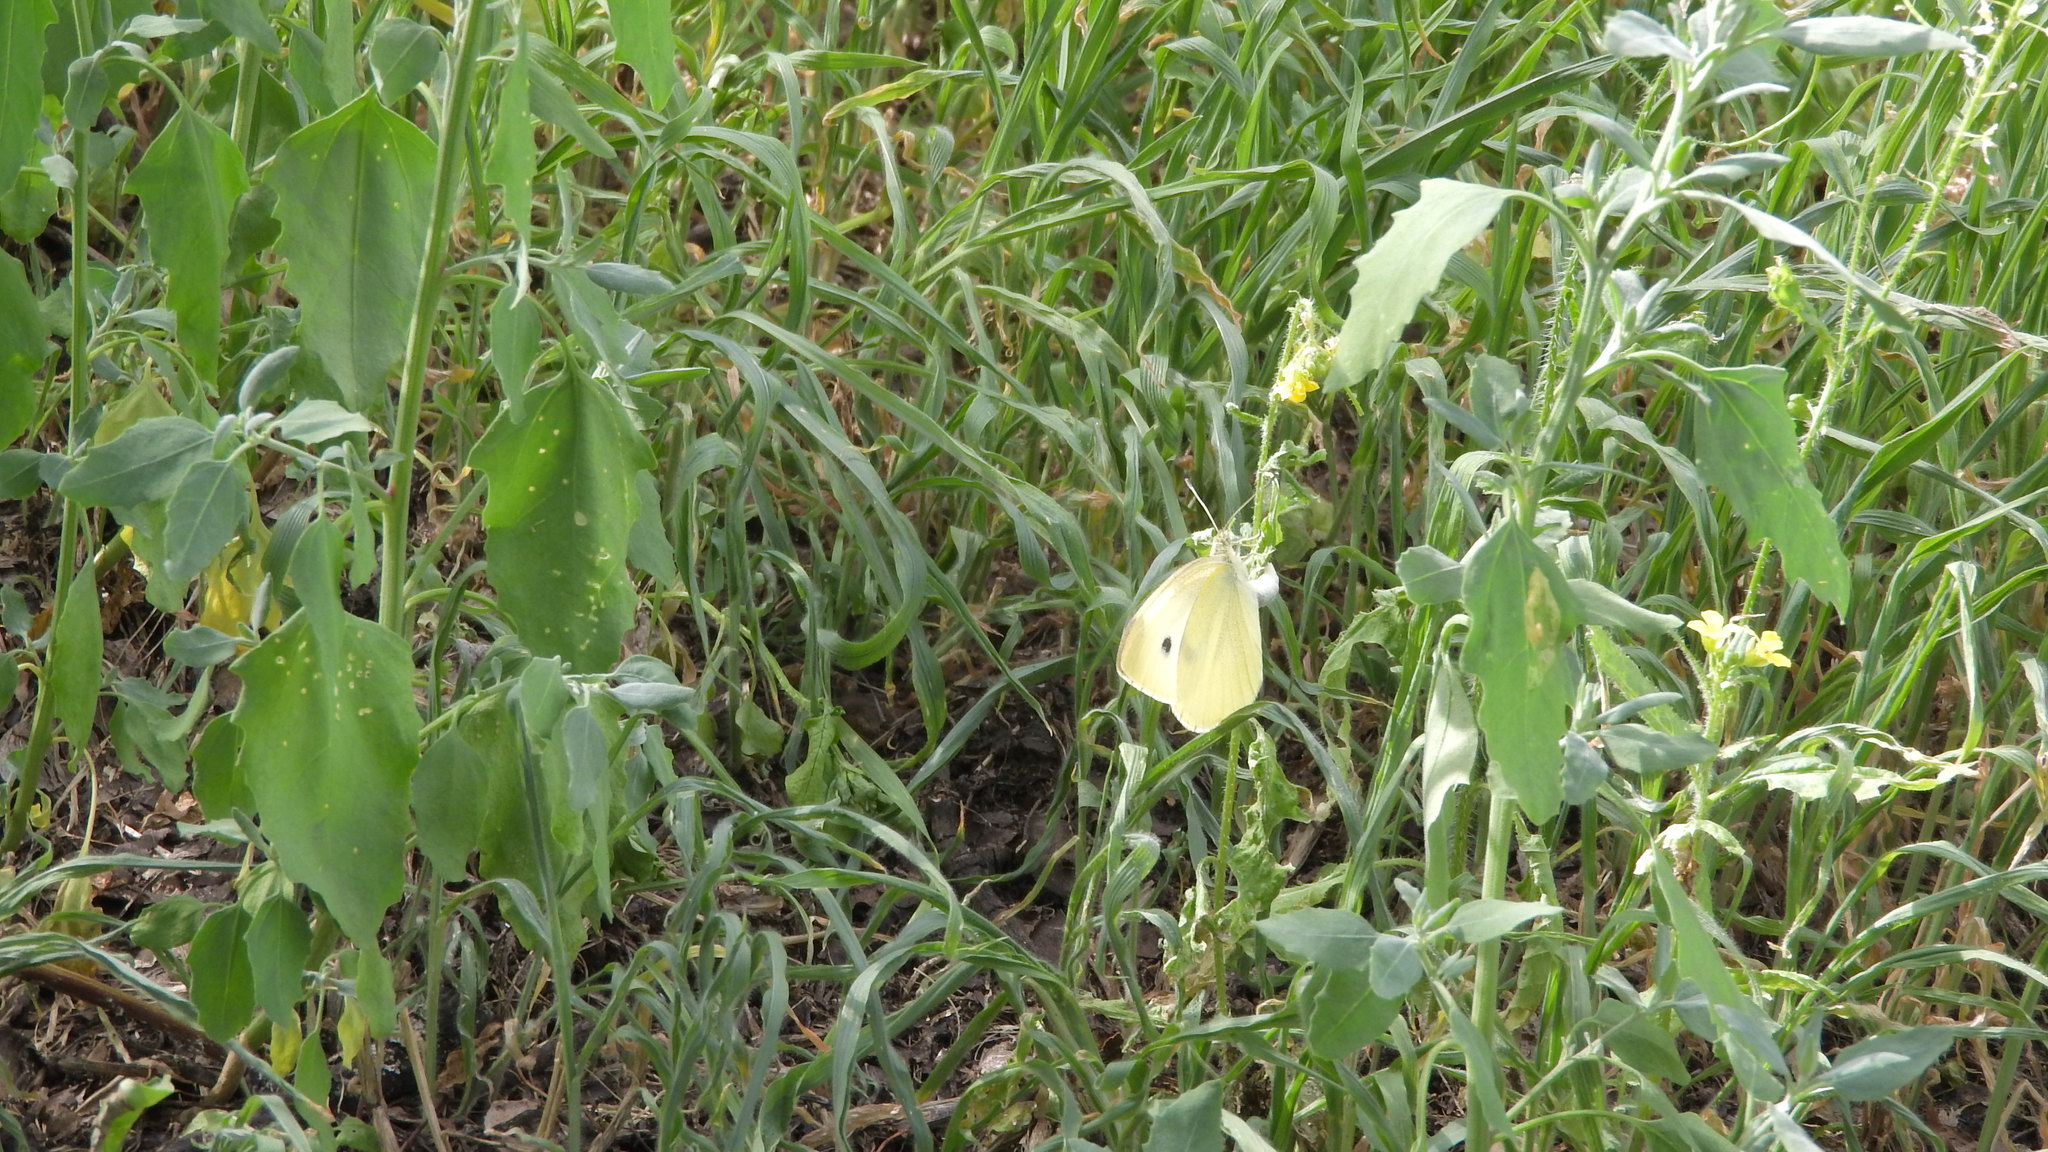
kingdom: Animalia
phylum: Arthropoda
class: Insecta
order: Lepidoptera
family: Pieridae
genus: Pieris
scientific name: Pieris rapae
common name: Small white
